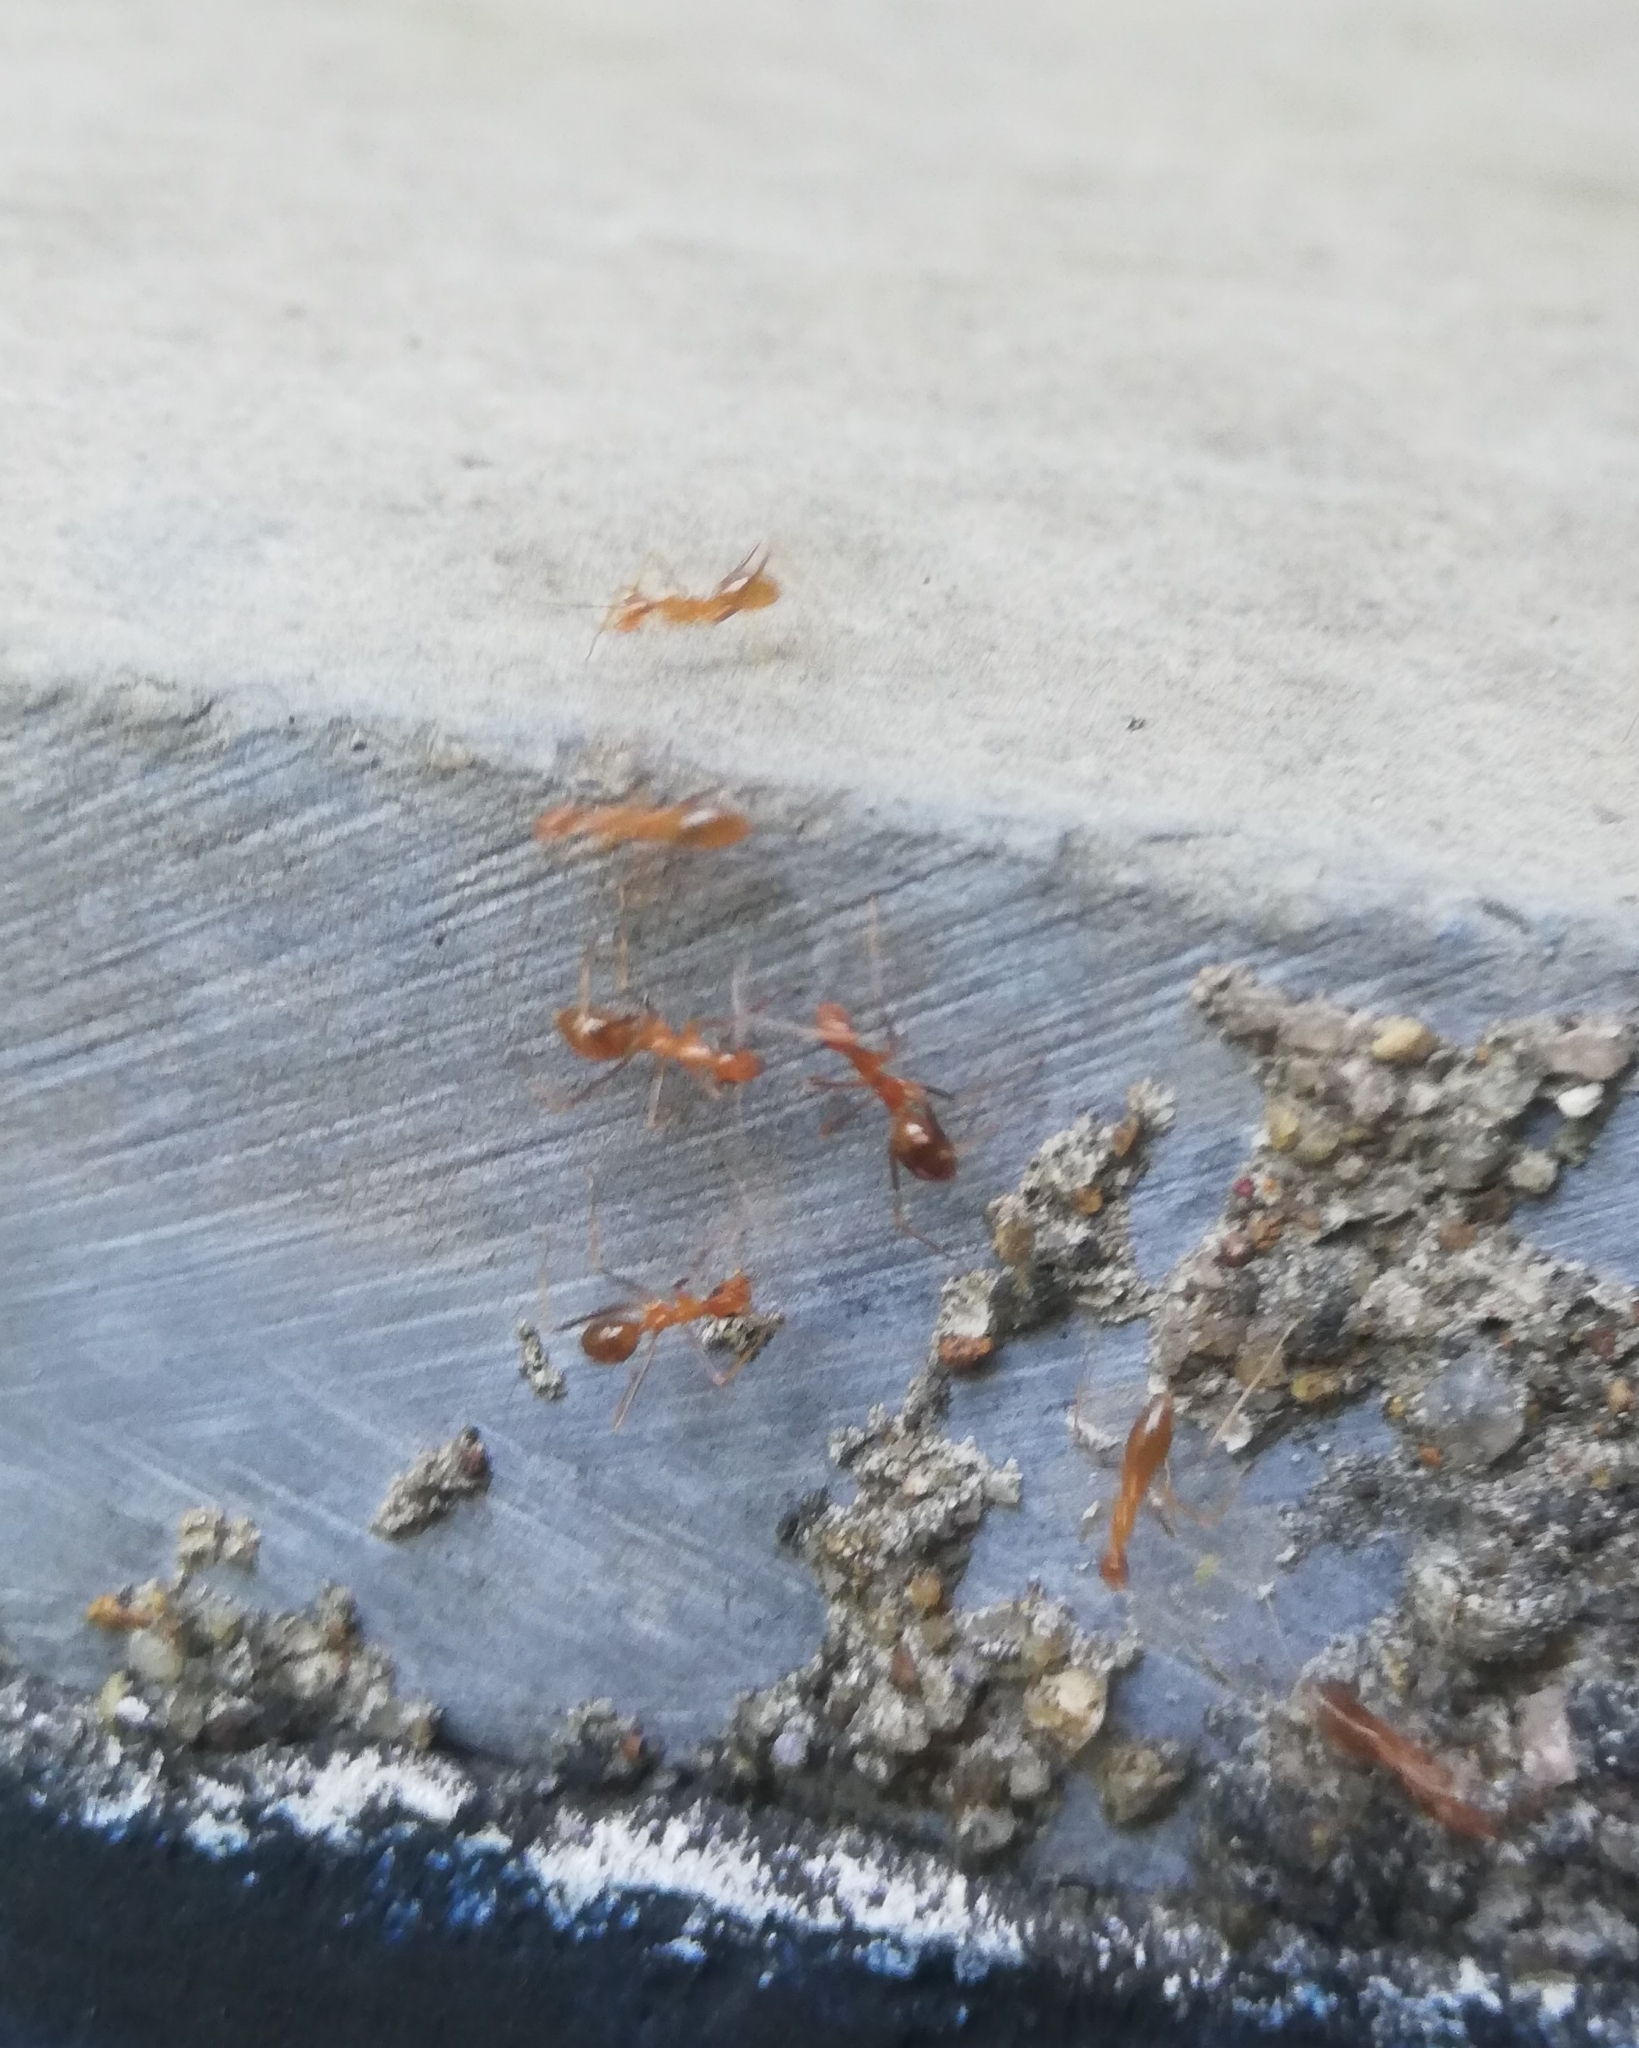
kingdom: Animalia
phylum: Arthropoda
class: Insecta
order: Hymenoptera
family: Formicidae
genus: Anoplolepis
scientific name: Anoplolepis gracilipes
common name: Ant
